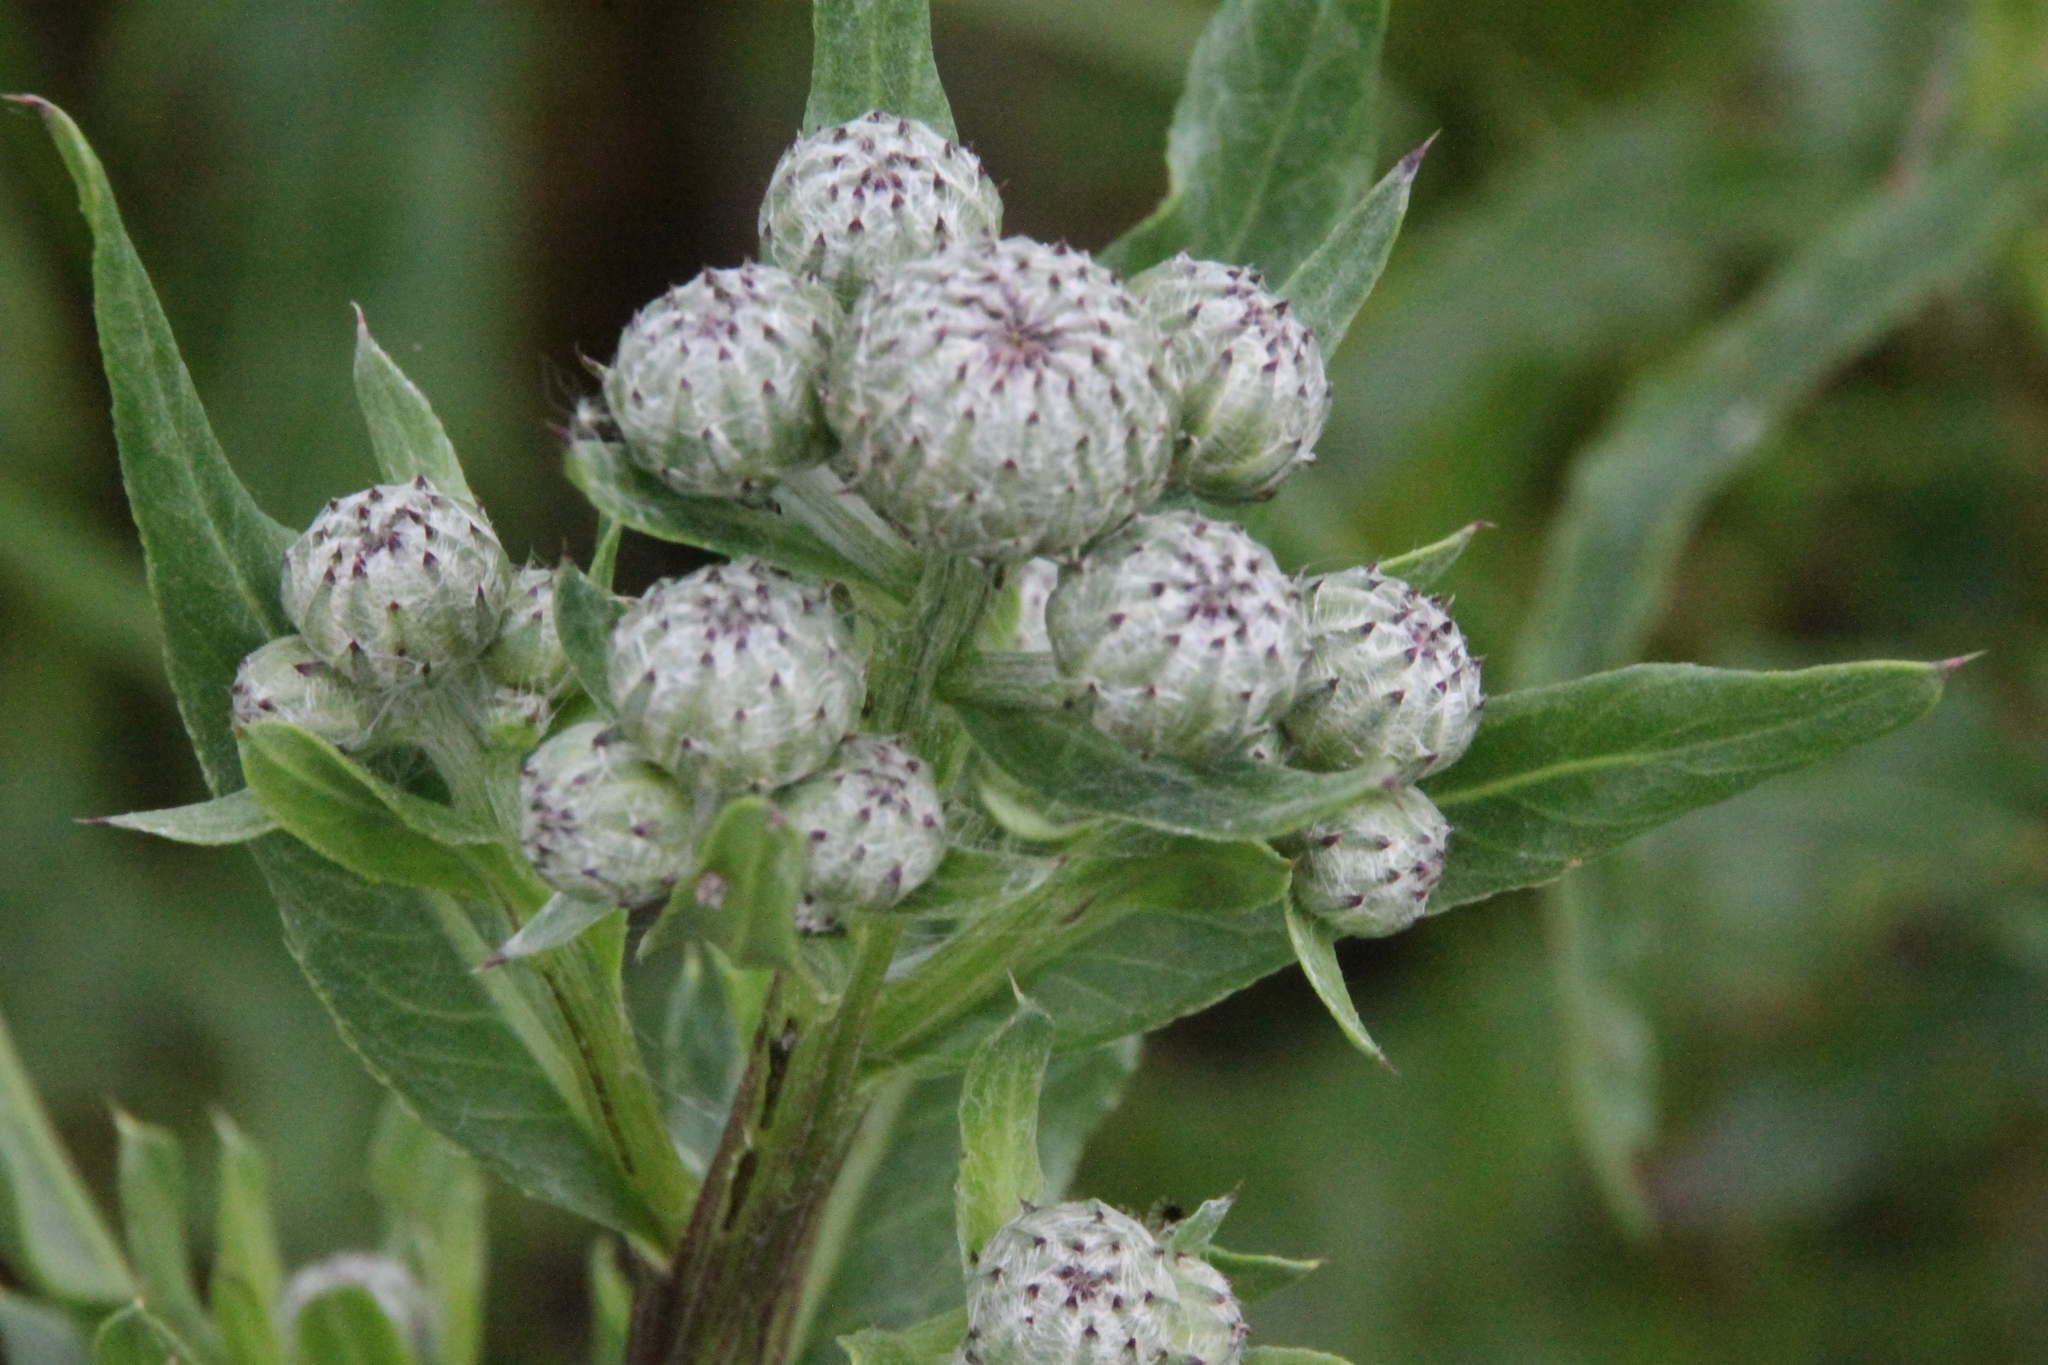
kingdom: Plantae
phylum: Tracheophyta
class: Magnoliopsida
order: Asterales
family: Asteraceae
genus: Cirsium
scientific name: Cirsium arvense
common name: Creeping thistle
